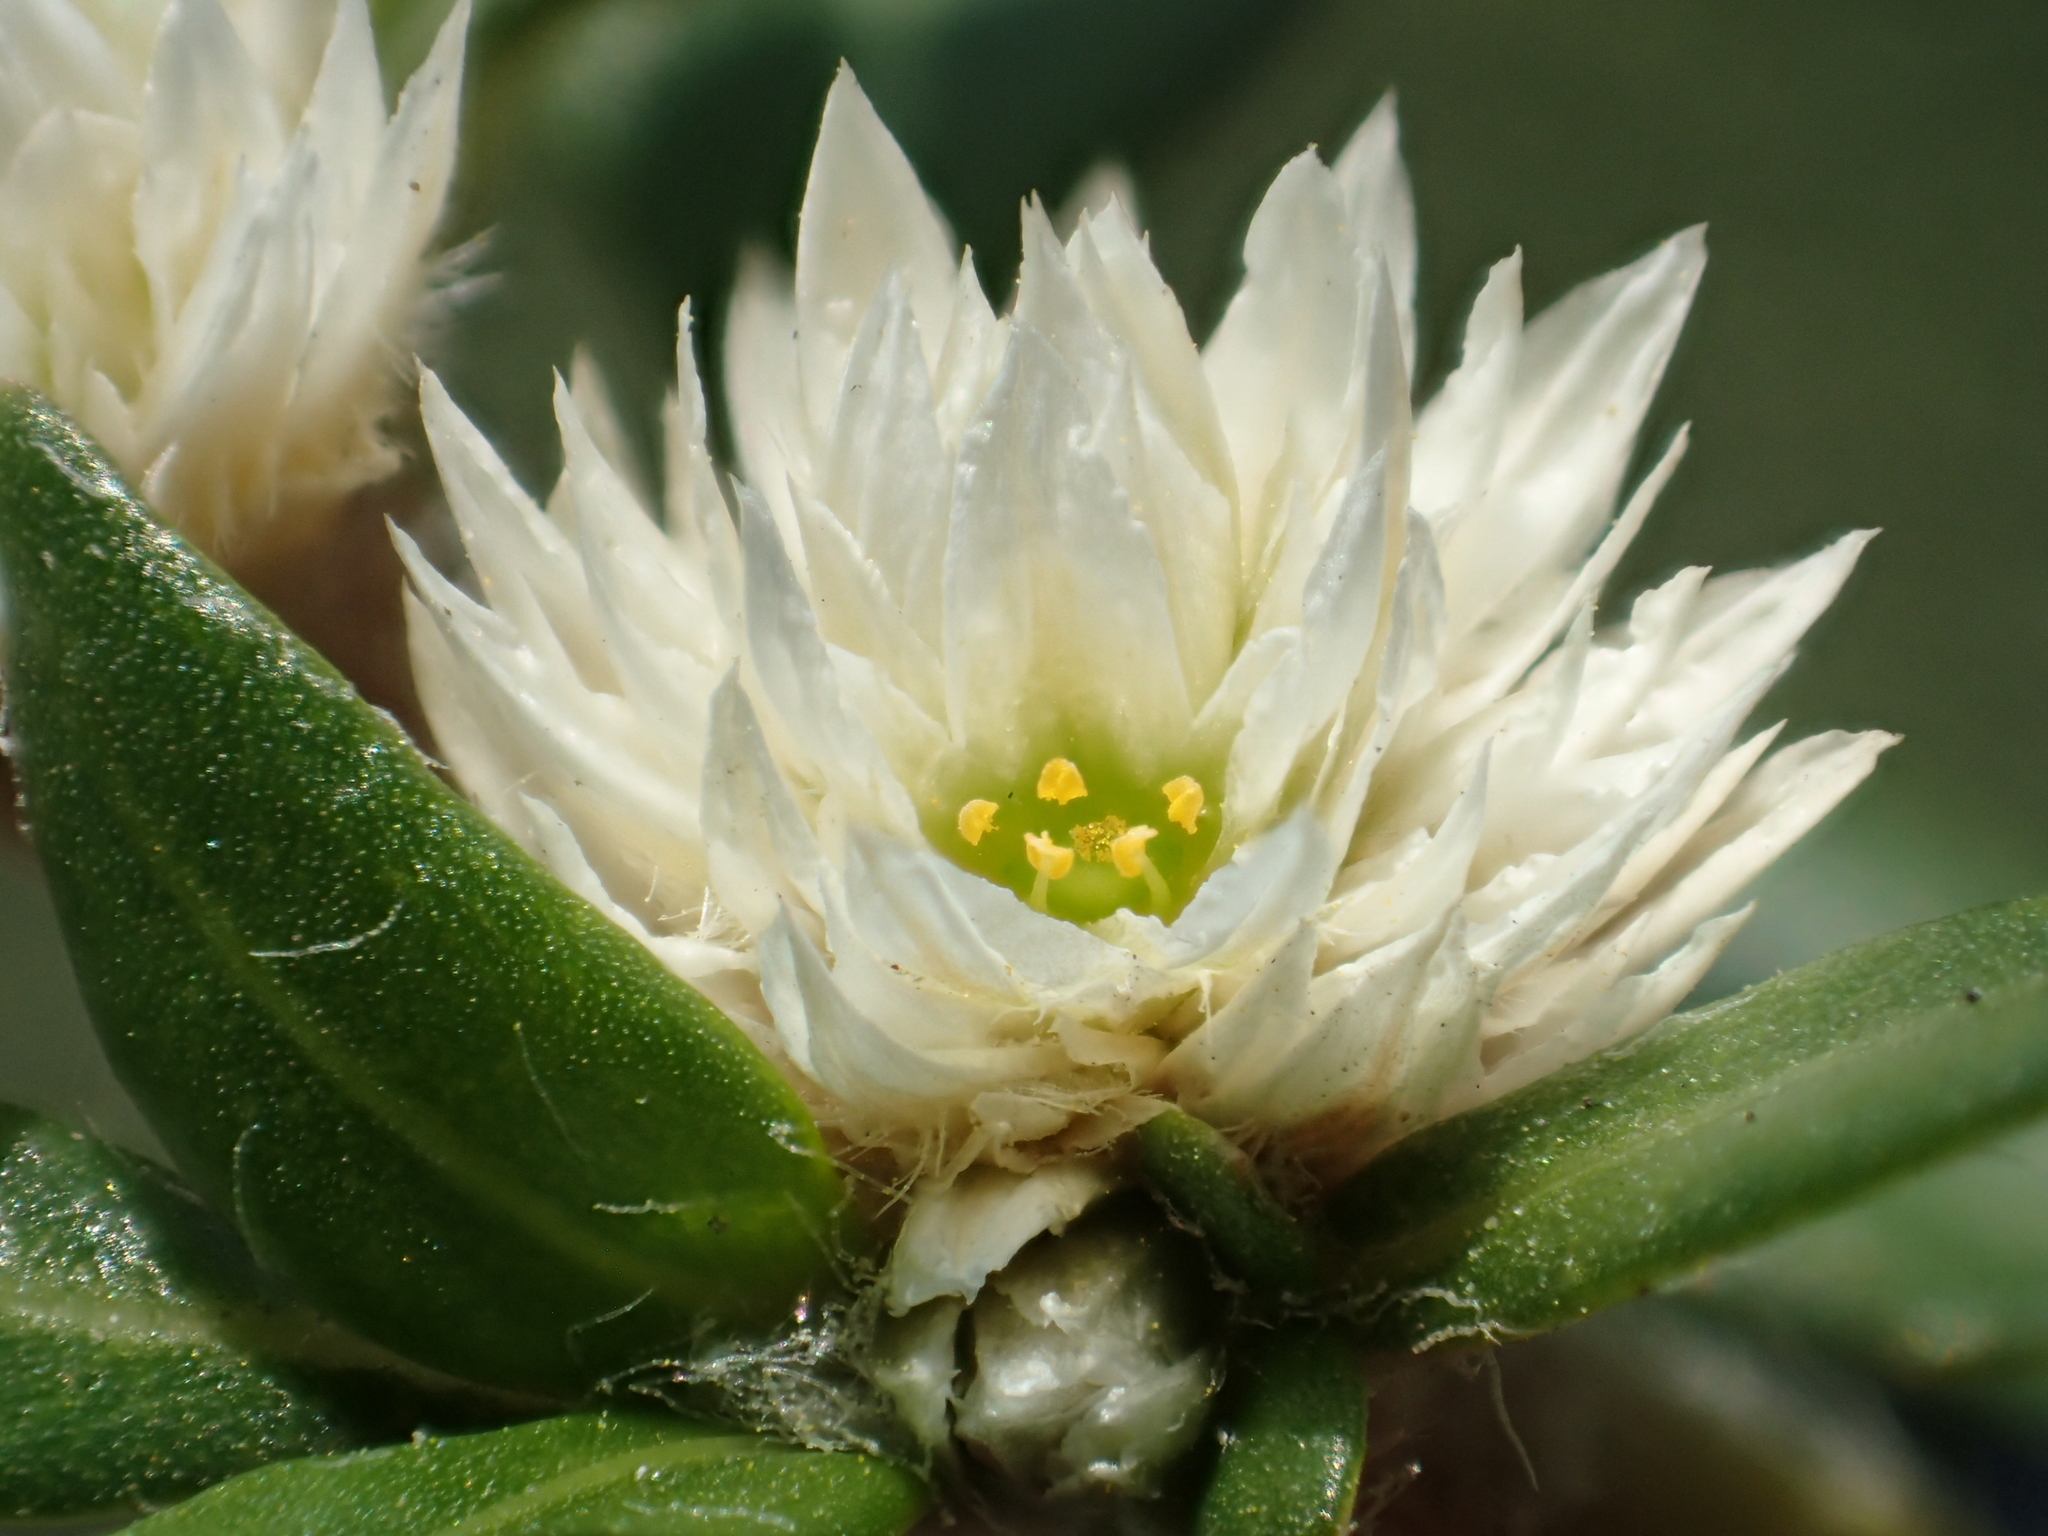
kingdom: Plantae
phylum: Tracheophyta
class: Magnoliopsida
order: Caryophyllales
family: Amaranthaceae
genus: Alternanthera
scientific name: Alternanthera paronychioides
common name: Smooth joyweed
